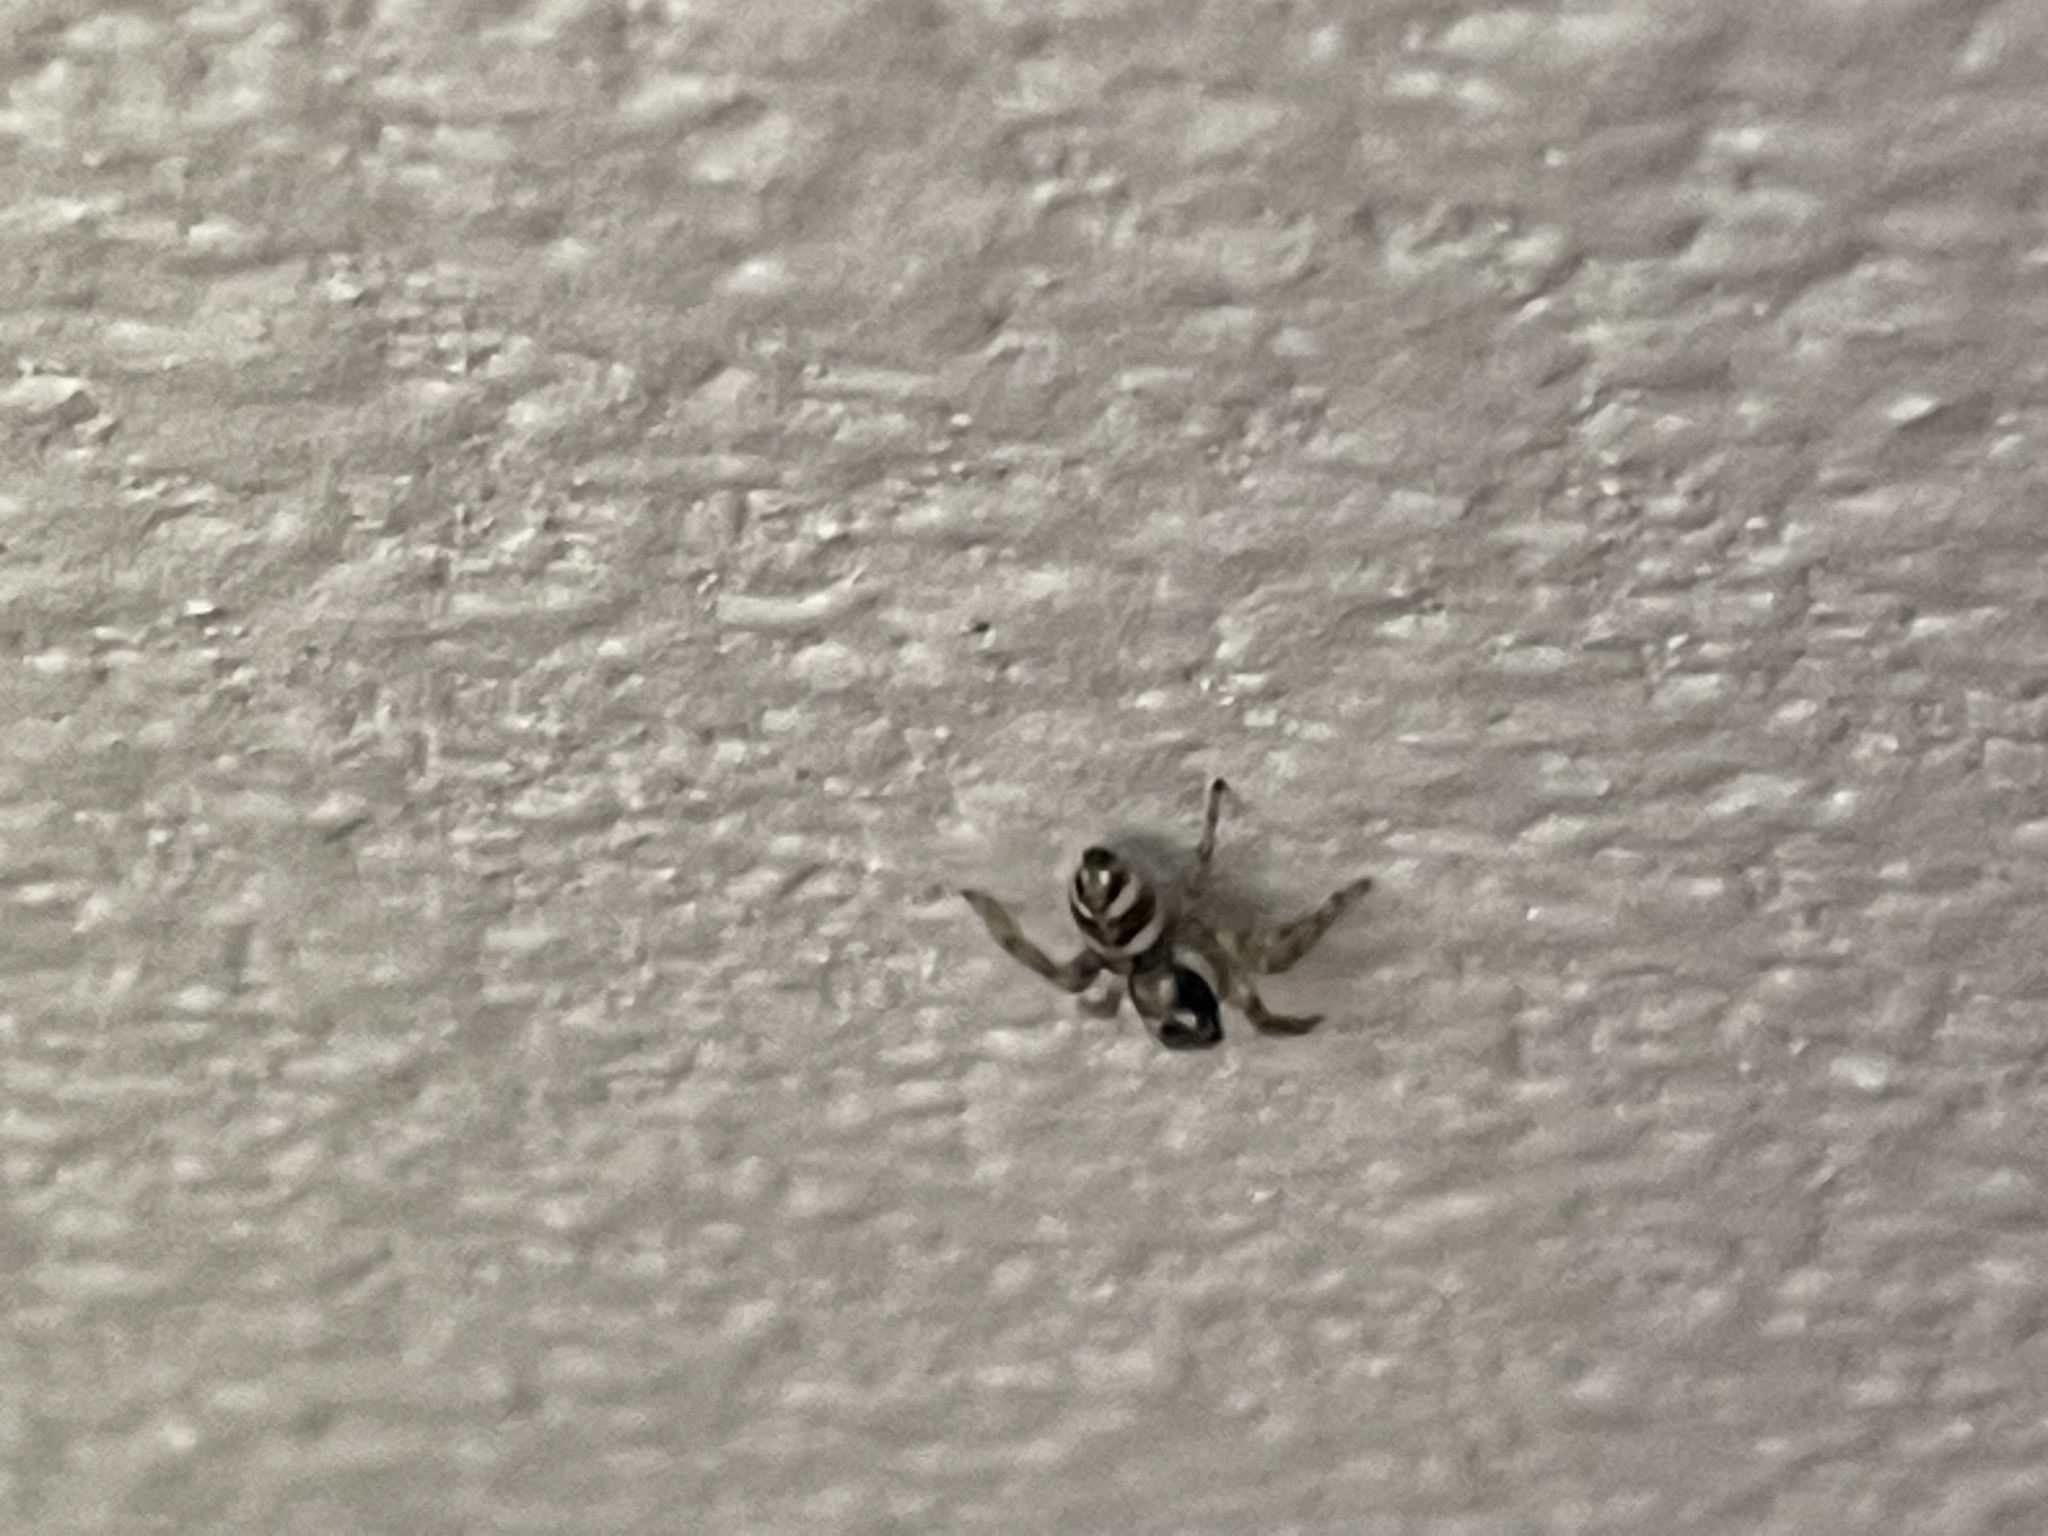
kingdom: Animalia
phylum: Arthropoda
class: Arachnida
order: Araneae
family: Salticidae
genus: Salticus
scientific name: Salticus scenicus
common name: Zebra jumper
